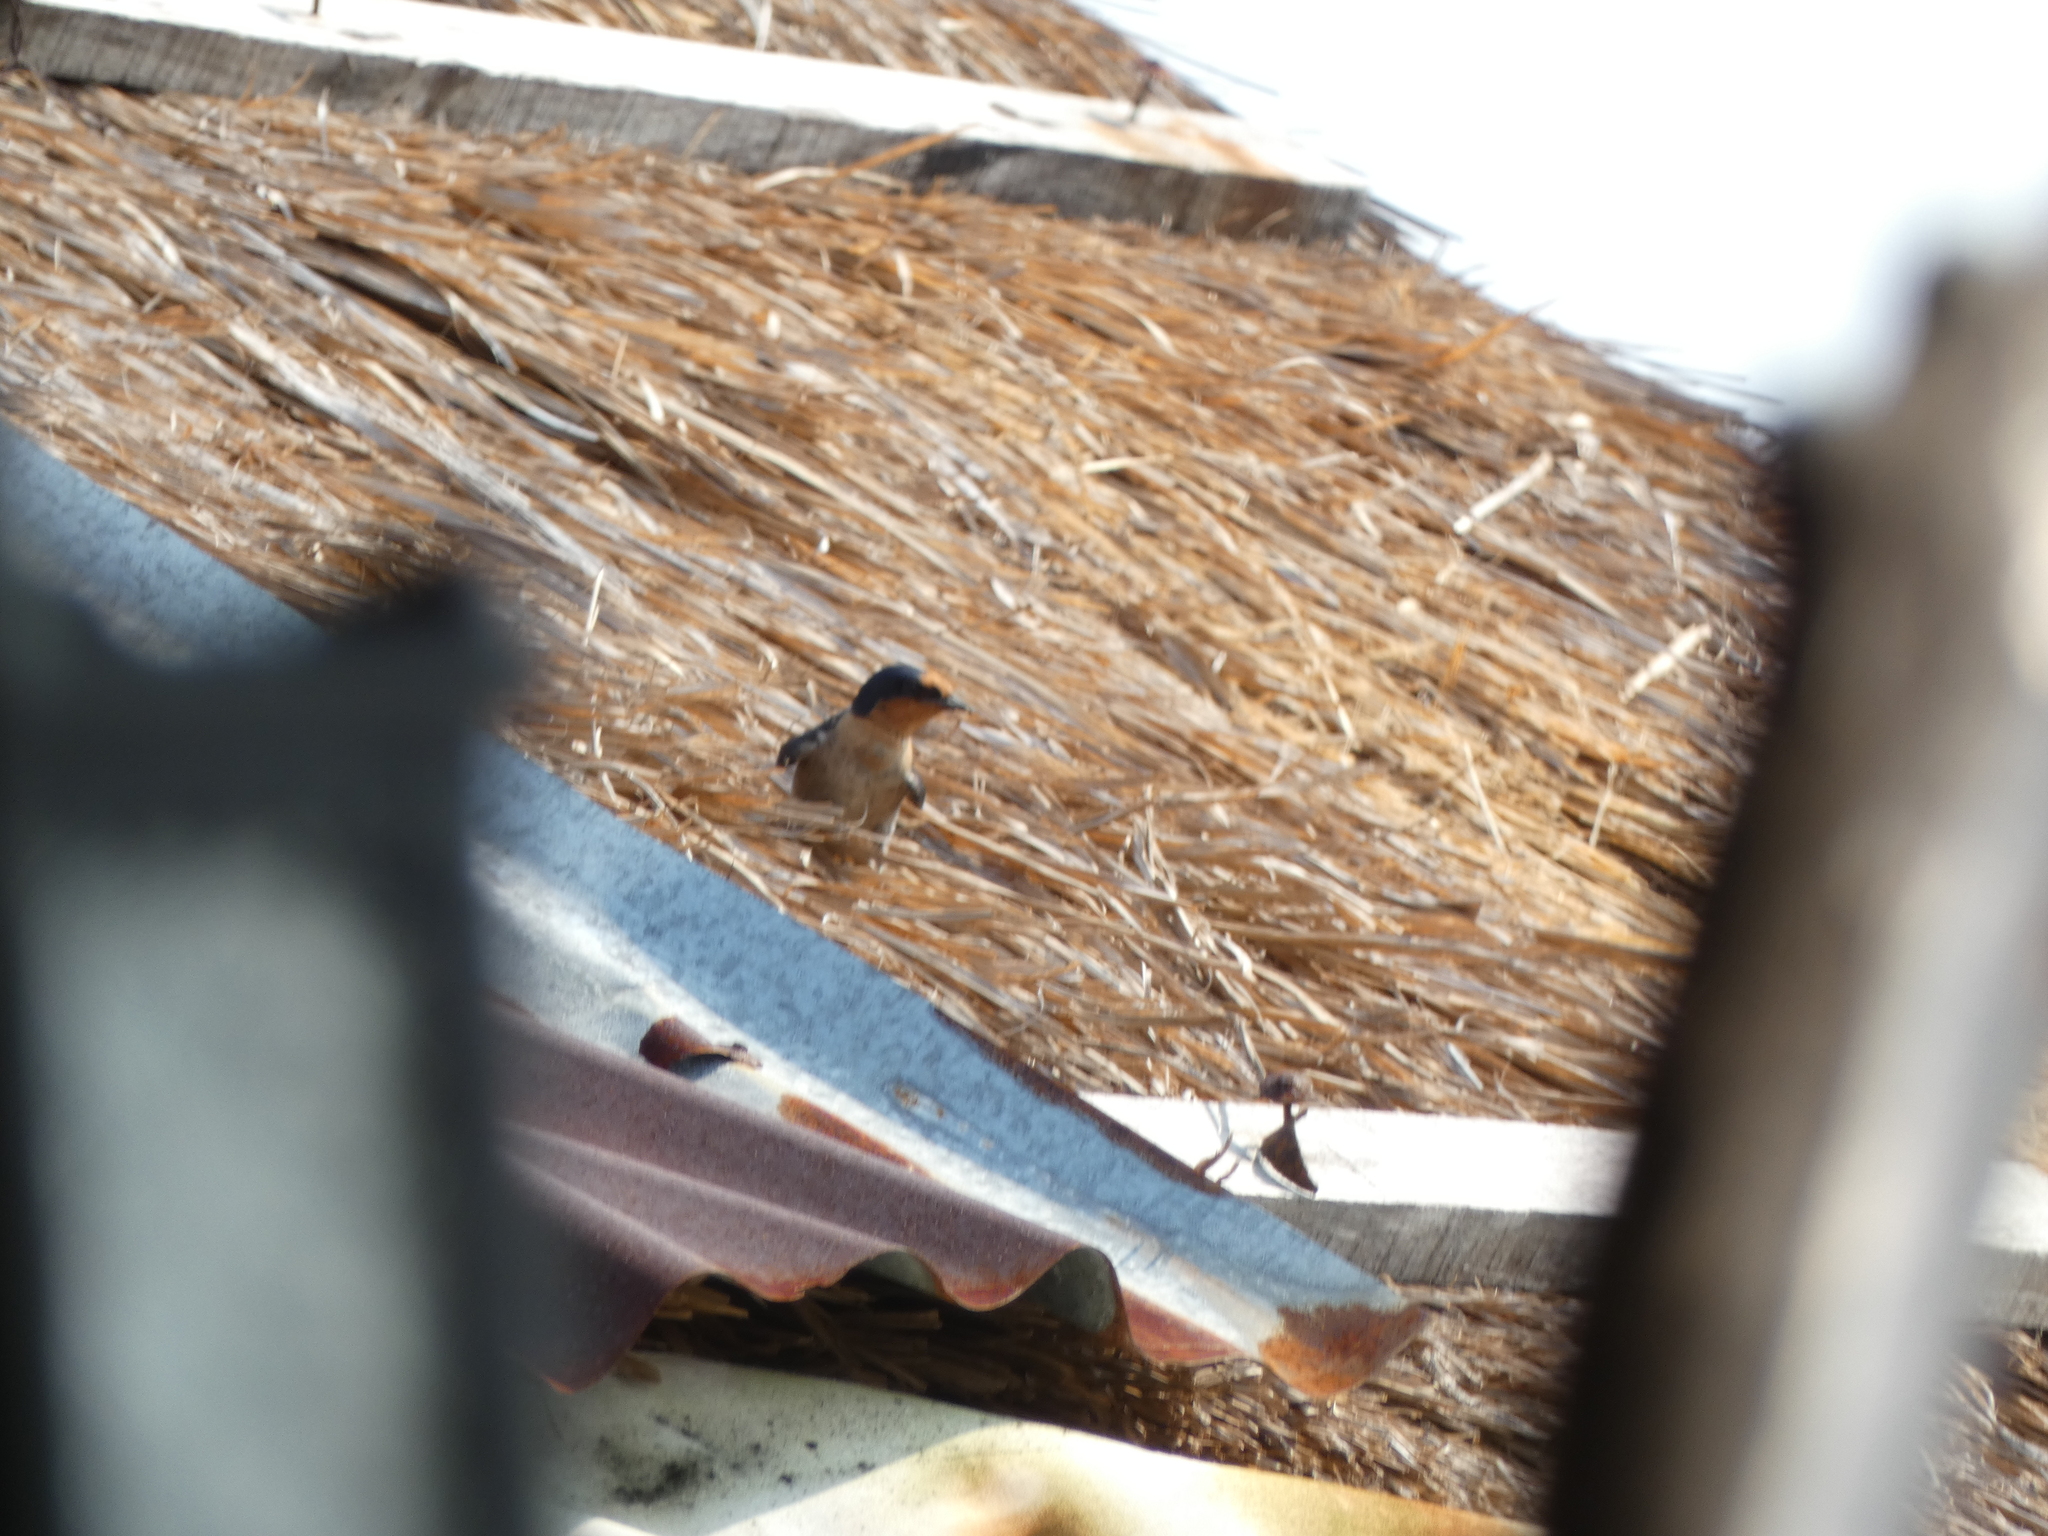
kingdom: Animalia
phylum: Chordata
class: Aves
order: Passeriformes
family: Hirundinidae
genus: Hirundo
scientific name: Hirundo tahitica
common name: Pacific swallow
